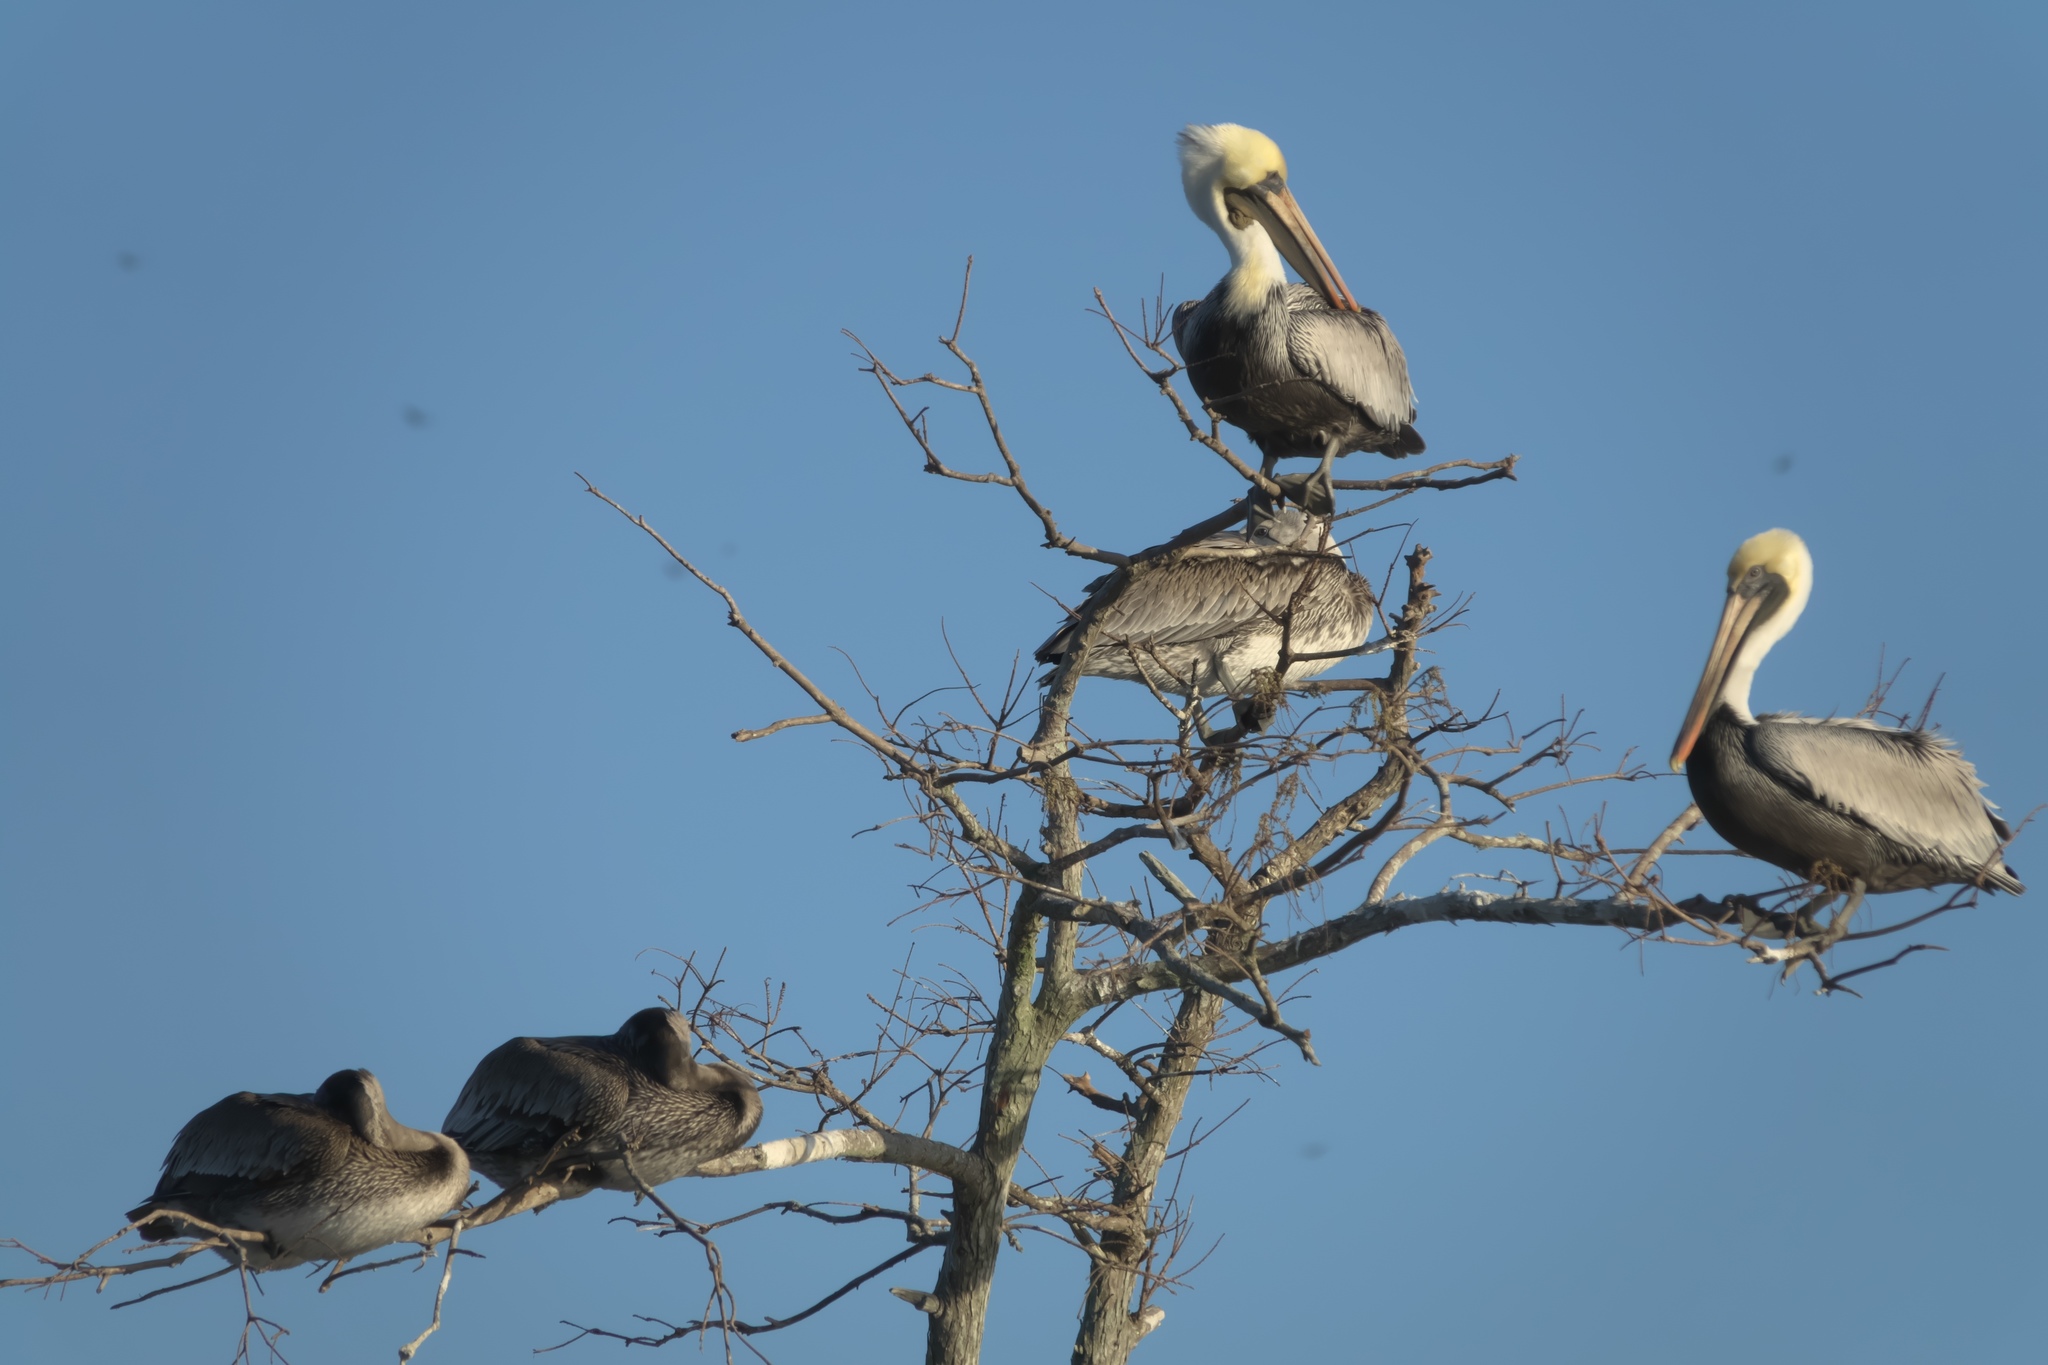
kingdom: Animalia
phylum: Chordata
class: Aves
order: Pelecaniformes
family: Pelecanidae
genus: Pelecanus
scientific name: Pelecanus occidentalis
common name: Brown pelican
